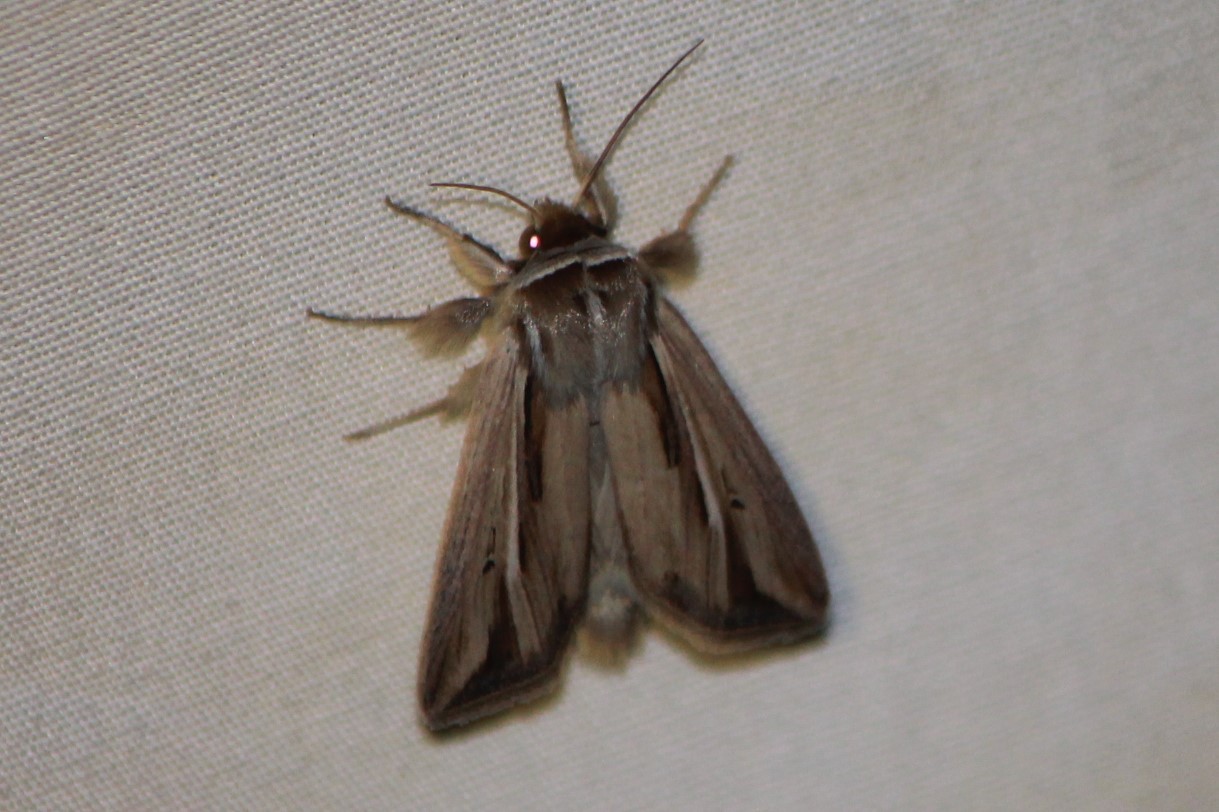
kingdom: Animalia
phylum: Arthropoda
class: Insecta
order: Lepidoptera
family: Noctuidae
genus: Dargida
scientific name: Dargida diffusa
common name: Wheat head armyworm
